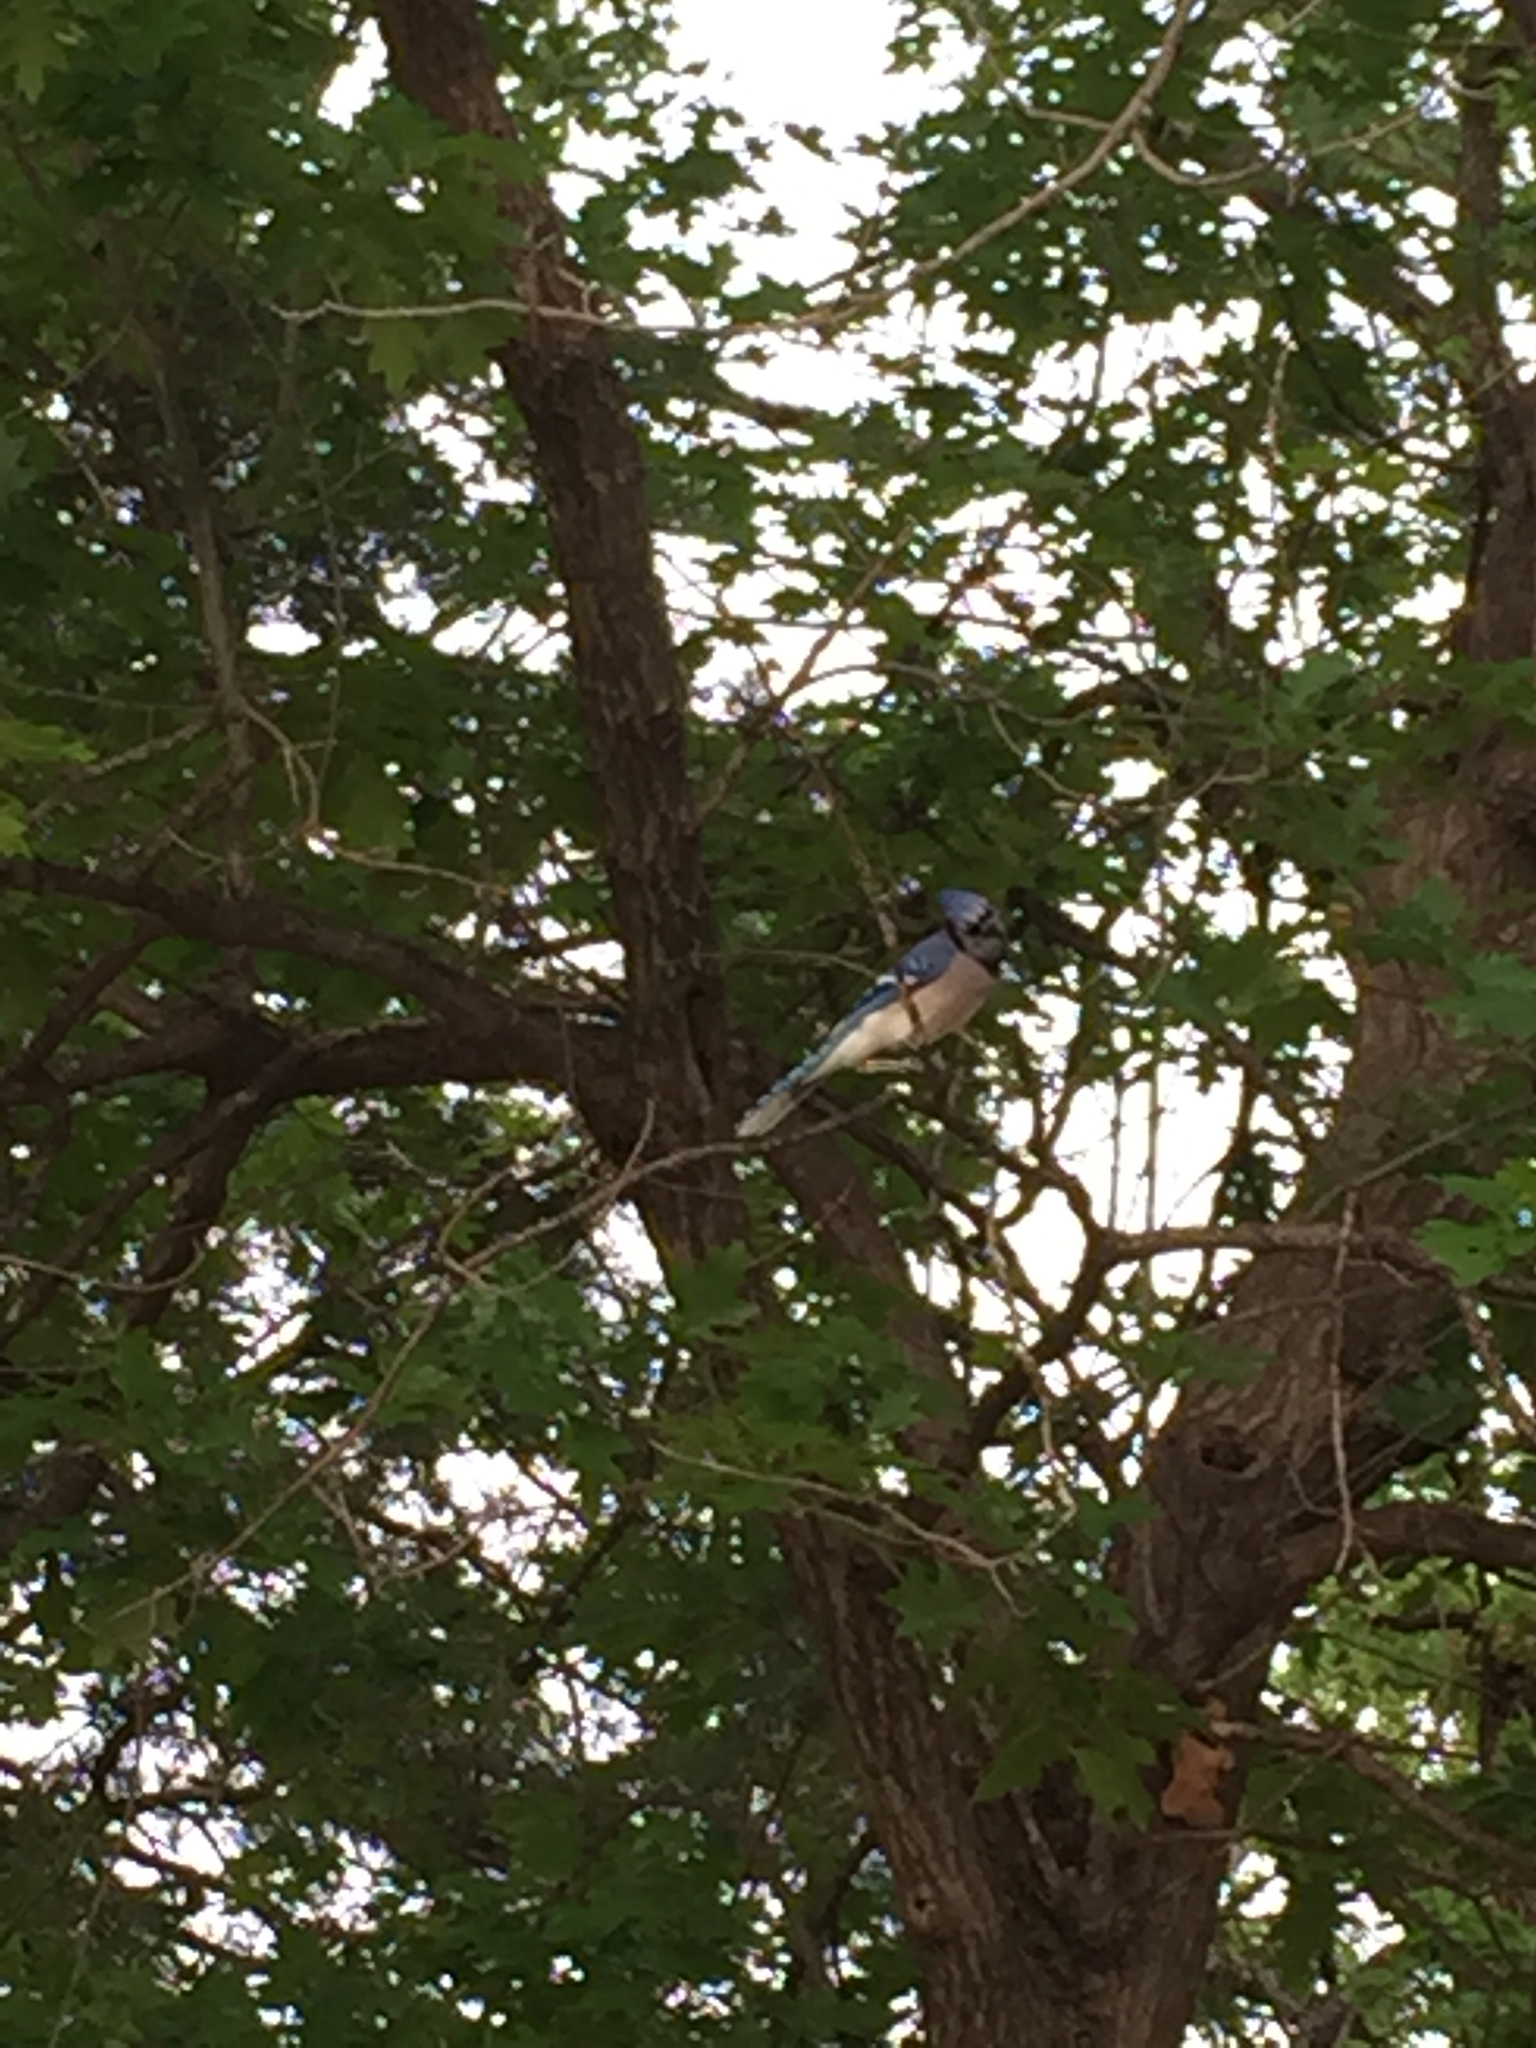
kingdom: Animalia
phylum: Chordata
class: Aves
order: Passeriformes
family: Corvidae
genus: Cyanocitta
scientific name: Cyanocitta cristata
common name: Blue jay
